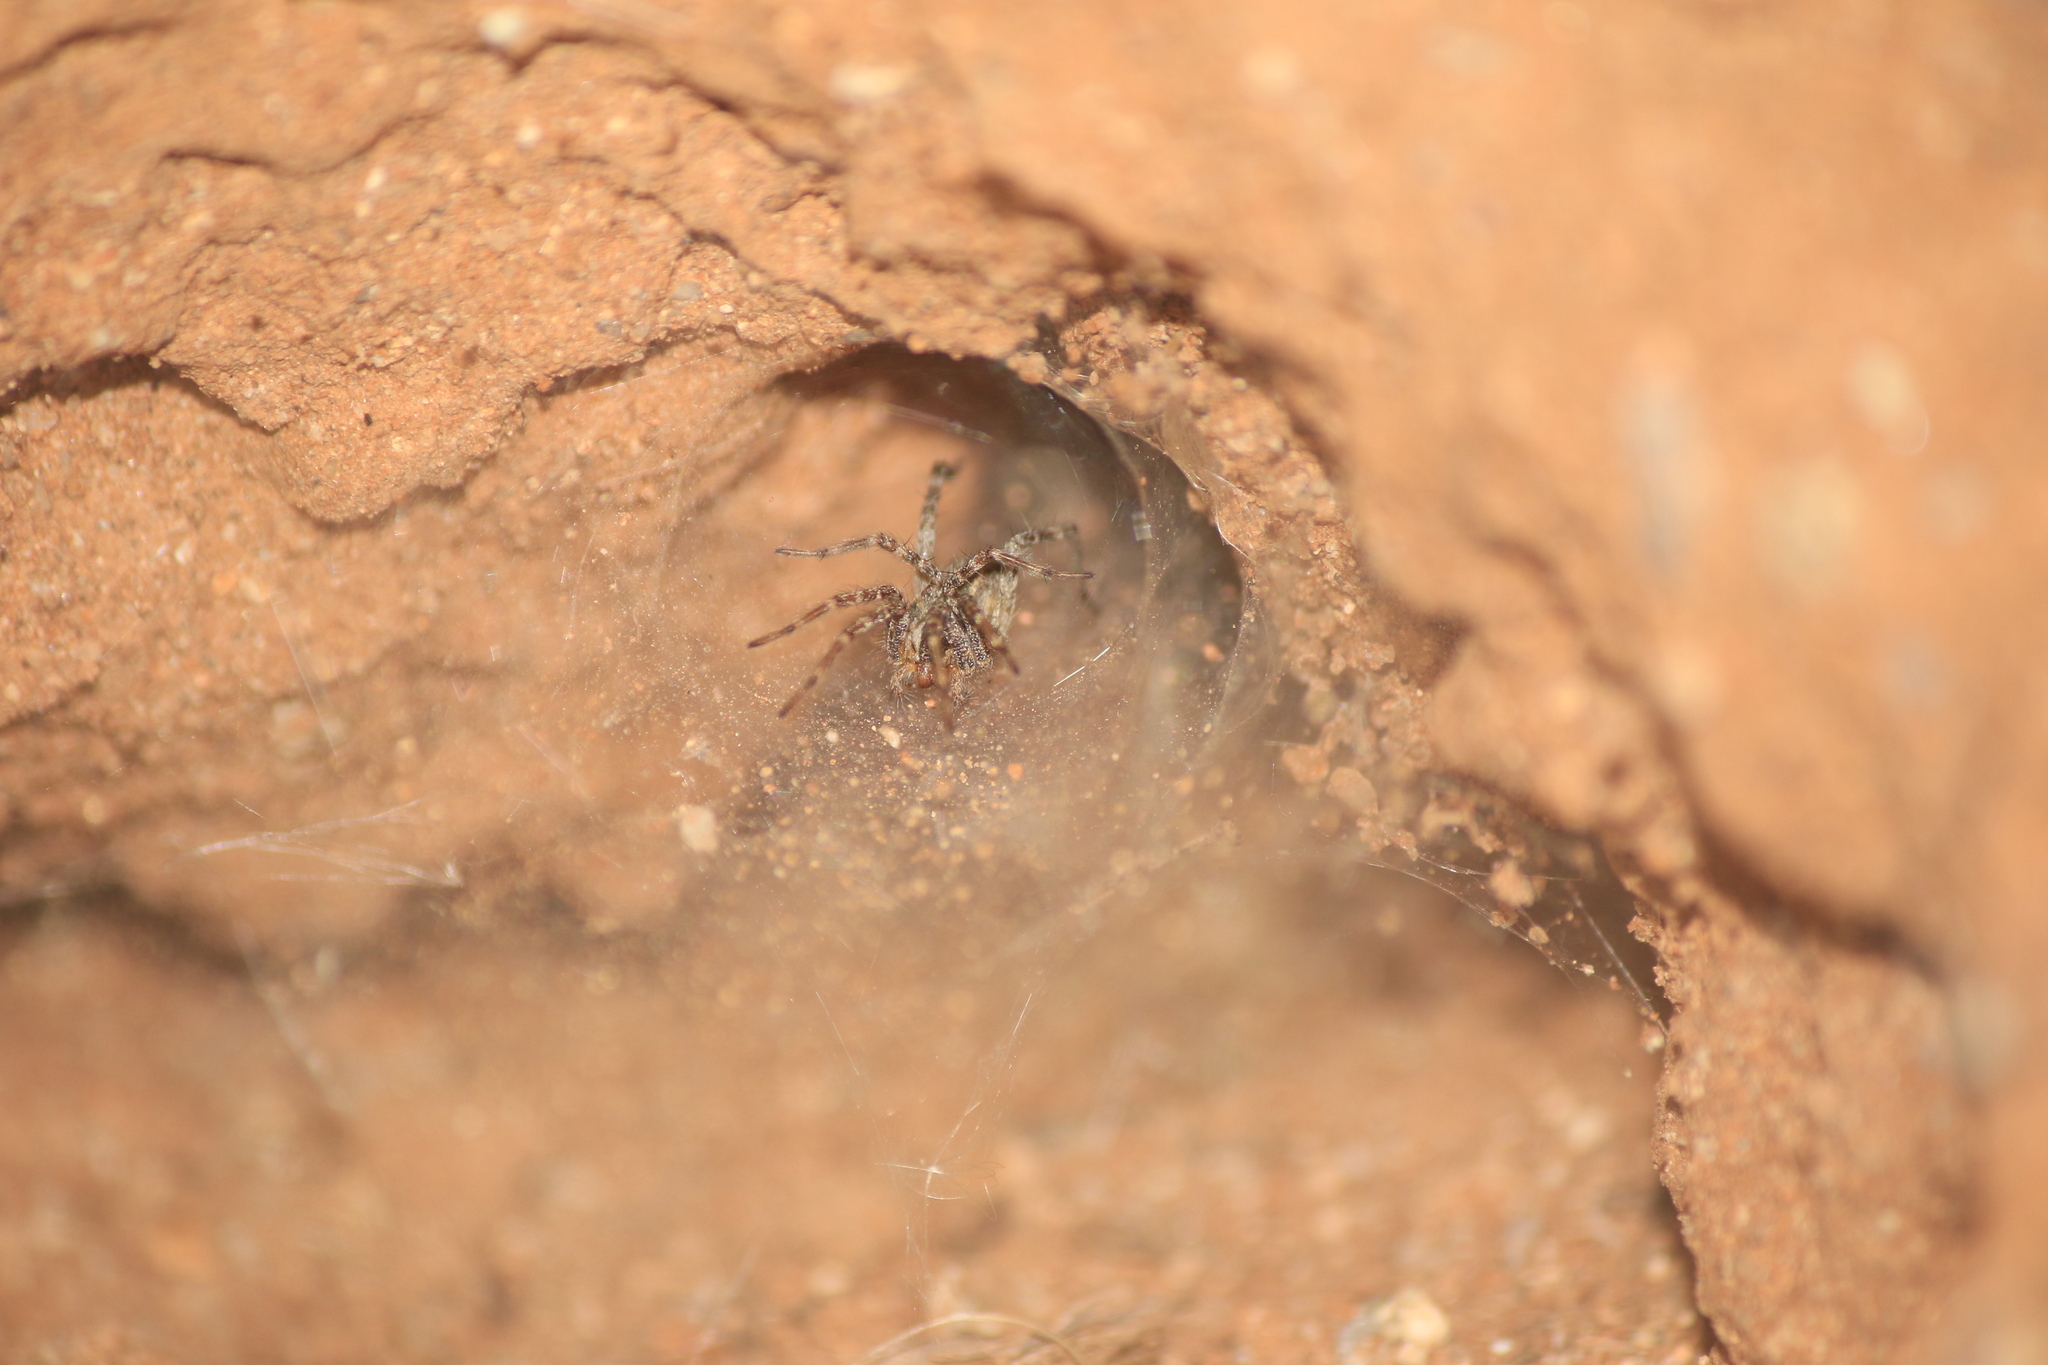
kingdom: Animalia
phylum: Arthropoda
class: Arachnida
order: Araneae
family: Agelenidae
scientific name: Agelenidae
